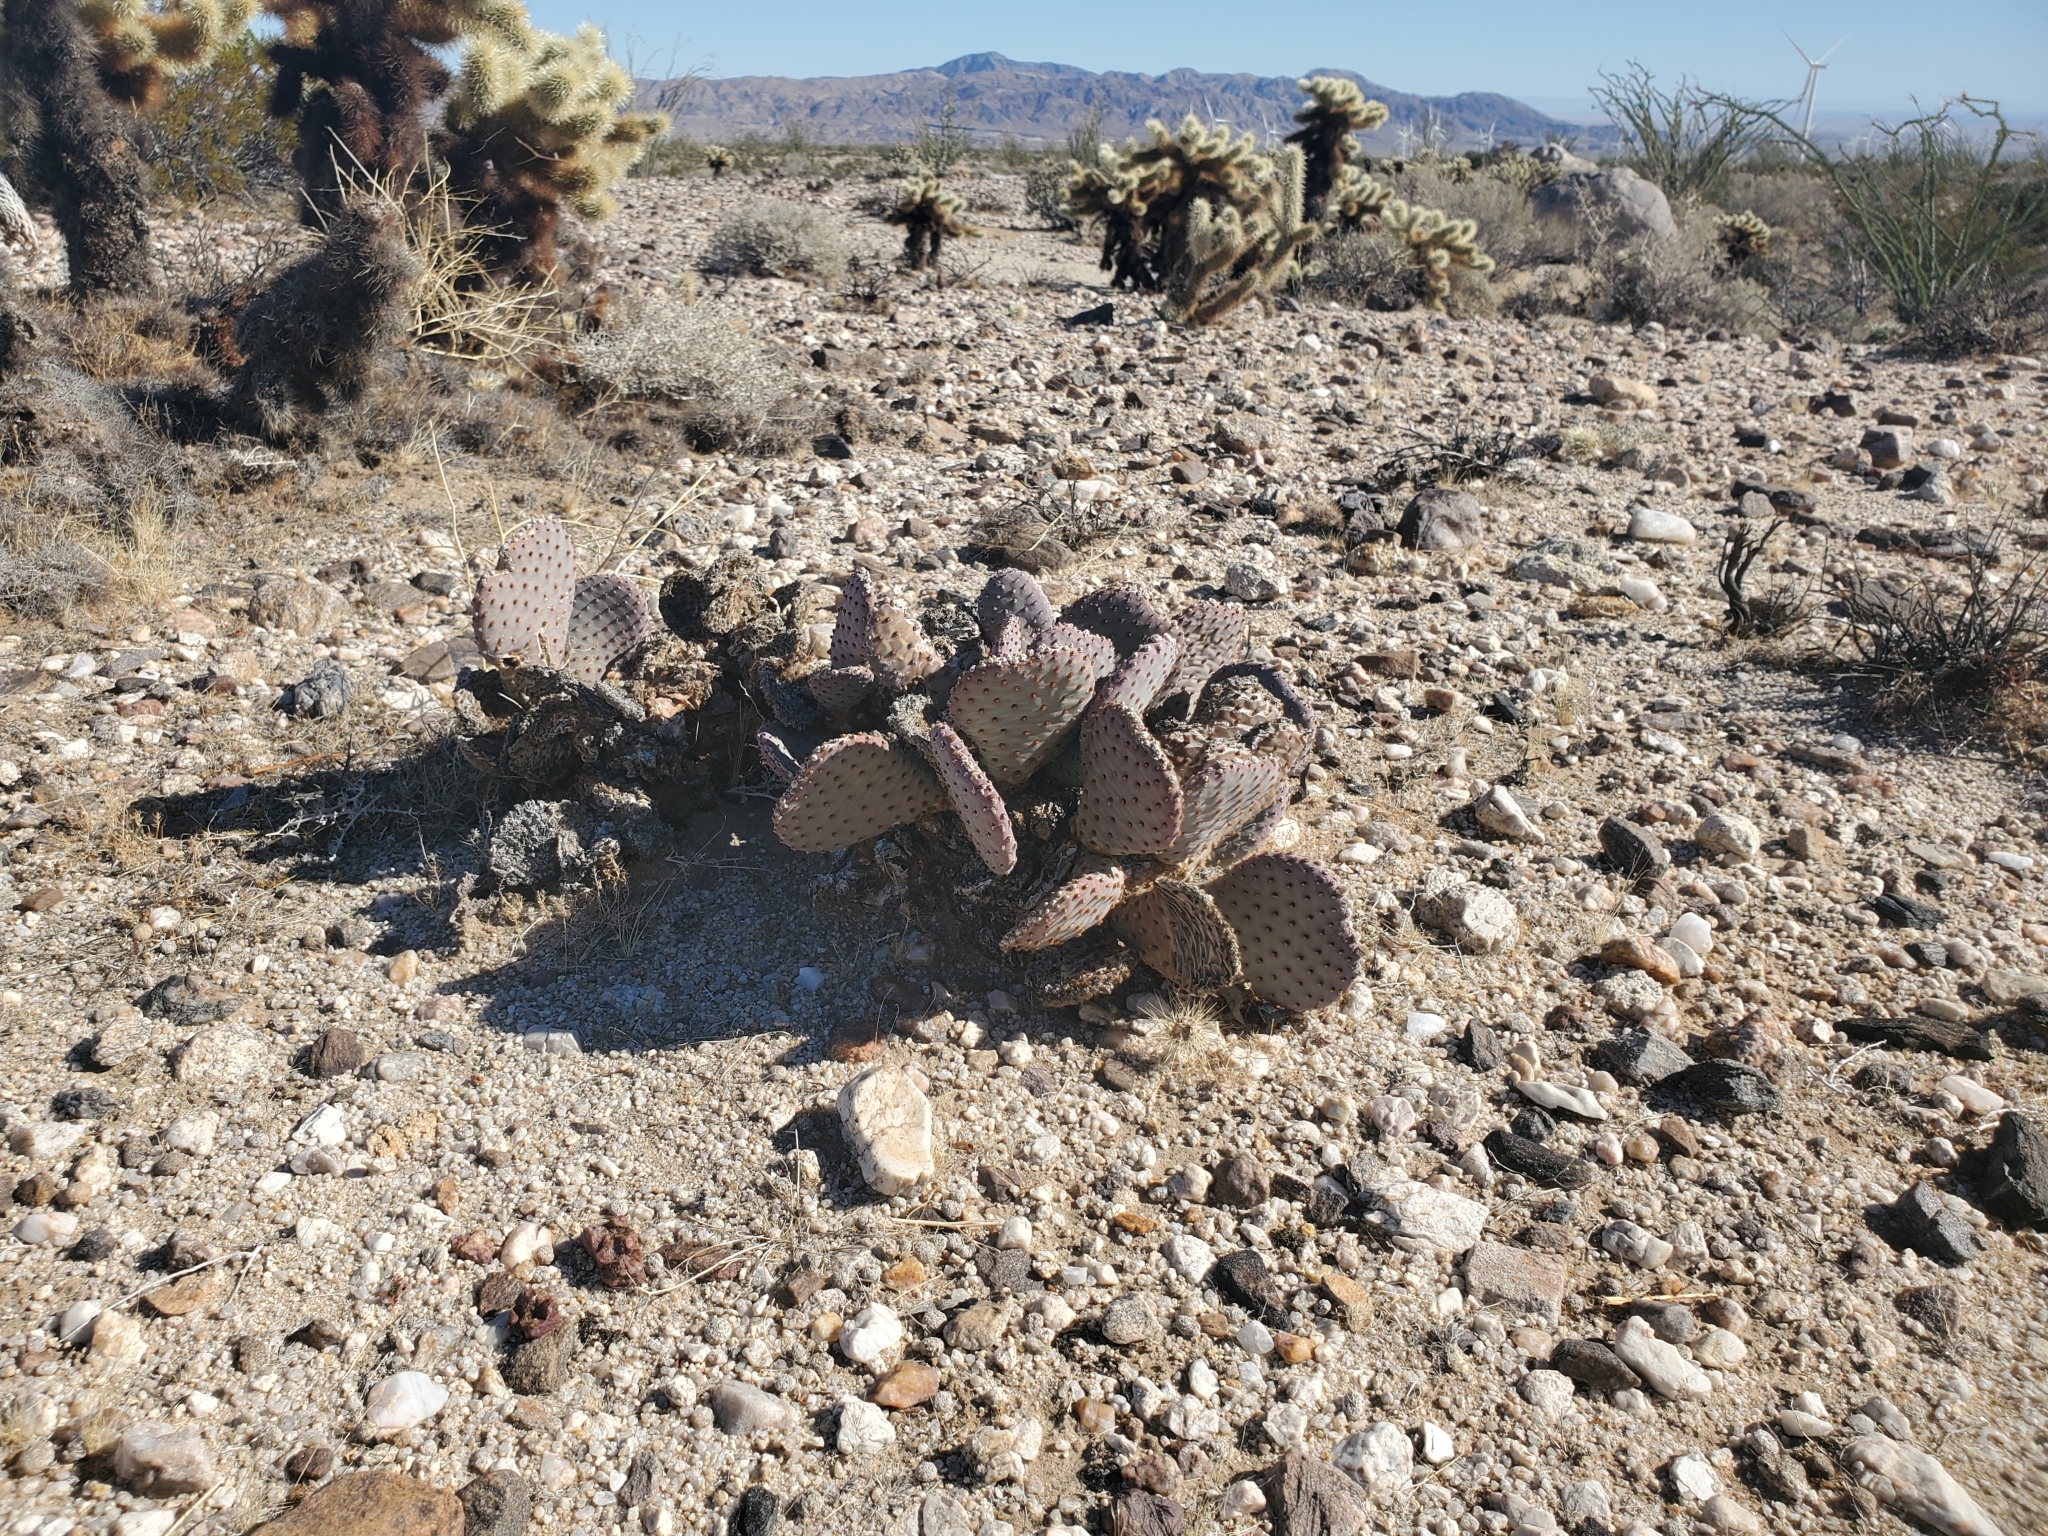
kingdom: Plantae
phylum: Tracheophyta
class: Magnoliopsida
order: Caryophyllales
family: Cactaceae
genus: Opuntia
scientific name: Opuntia basilaris
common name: Beavertail prickly-pear
